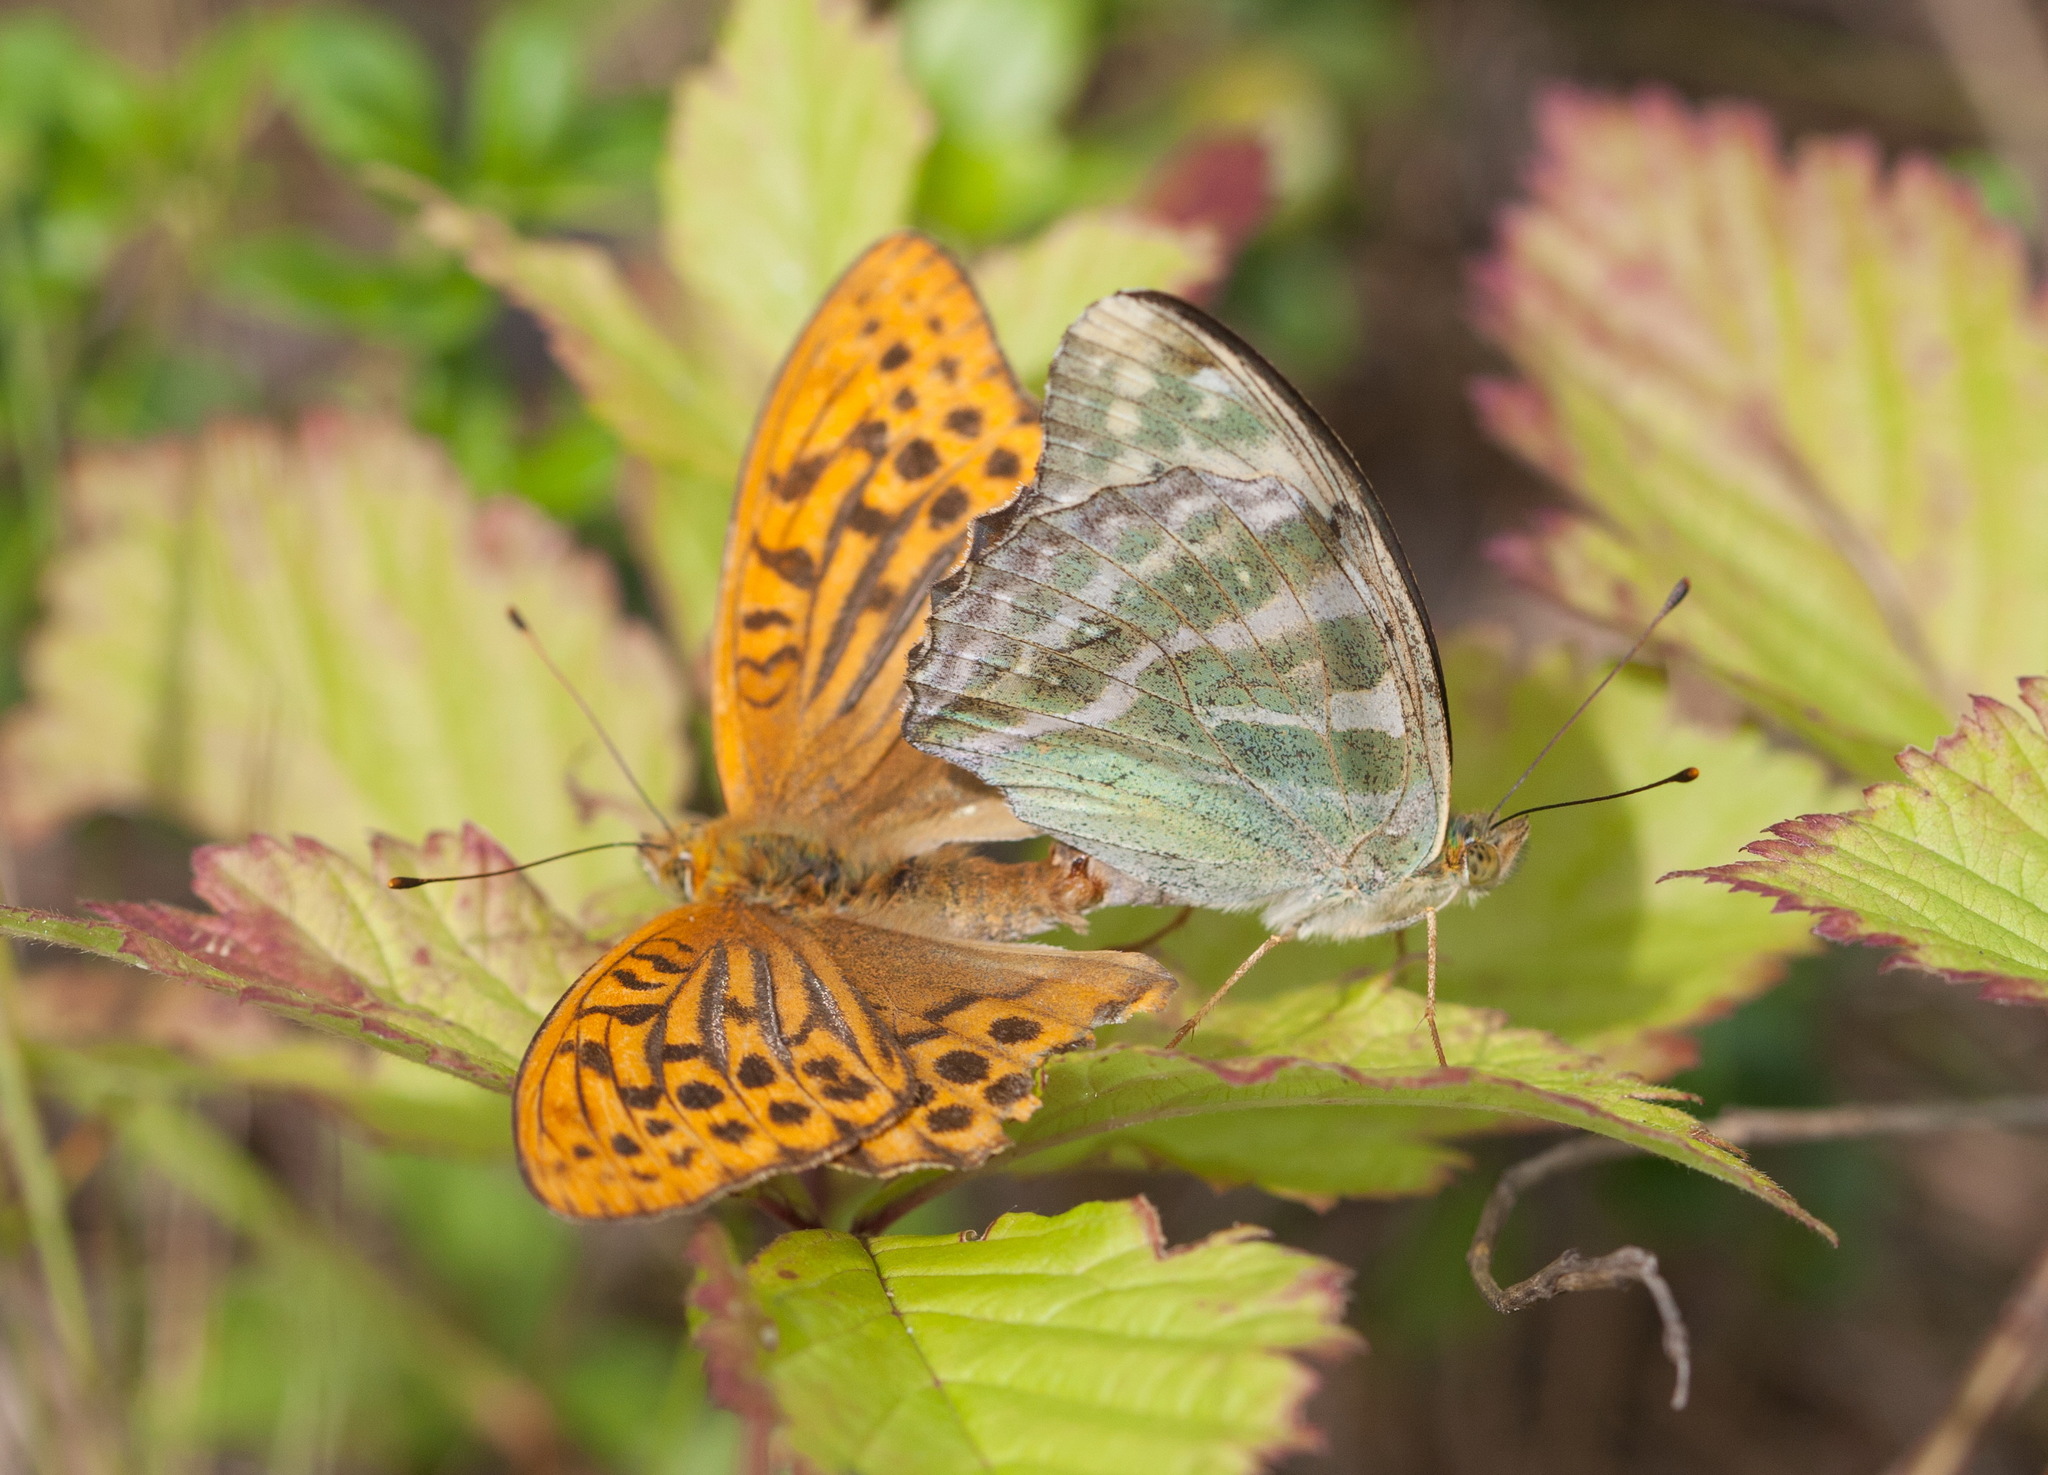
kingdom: Animalia
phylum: Arthropoda
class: Insecta
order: Lepidoptera
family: Nymphalidae
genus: Argynnis
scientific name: Argynnis paphia
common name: Silver-washed fritillary
